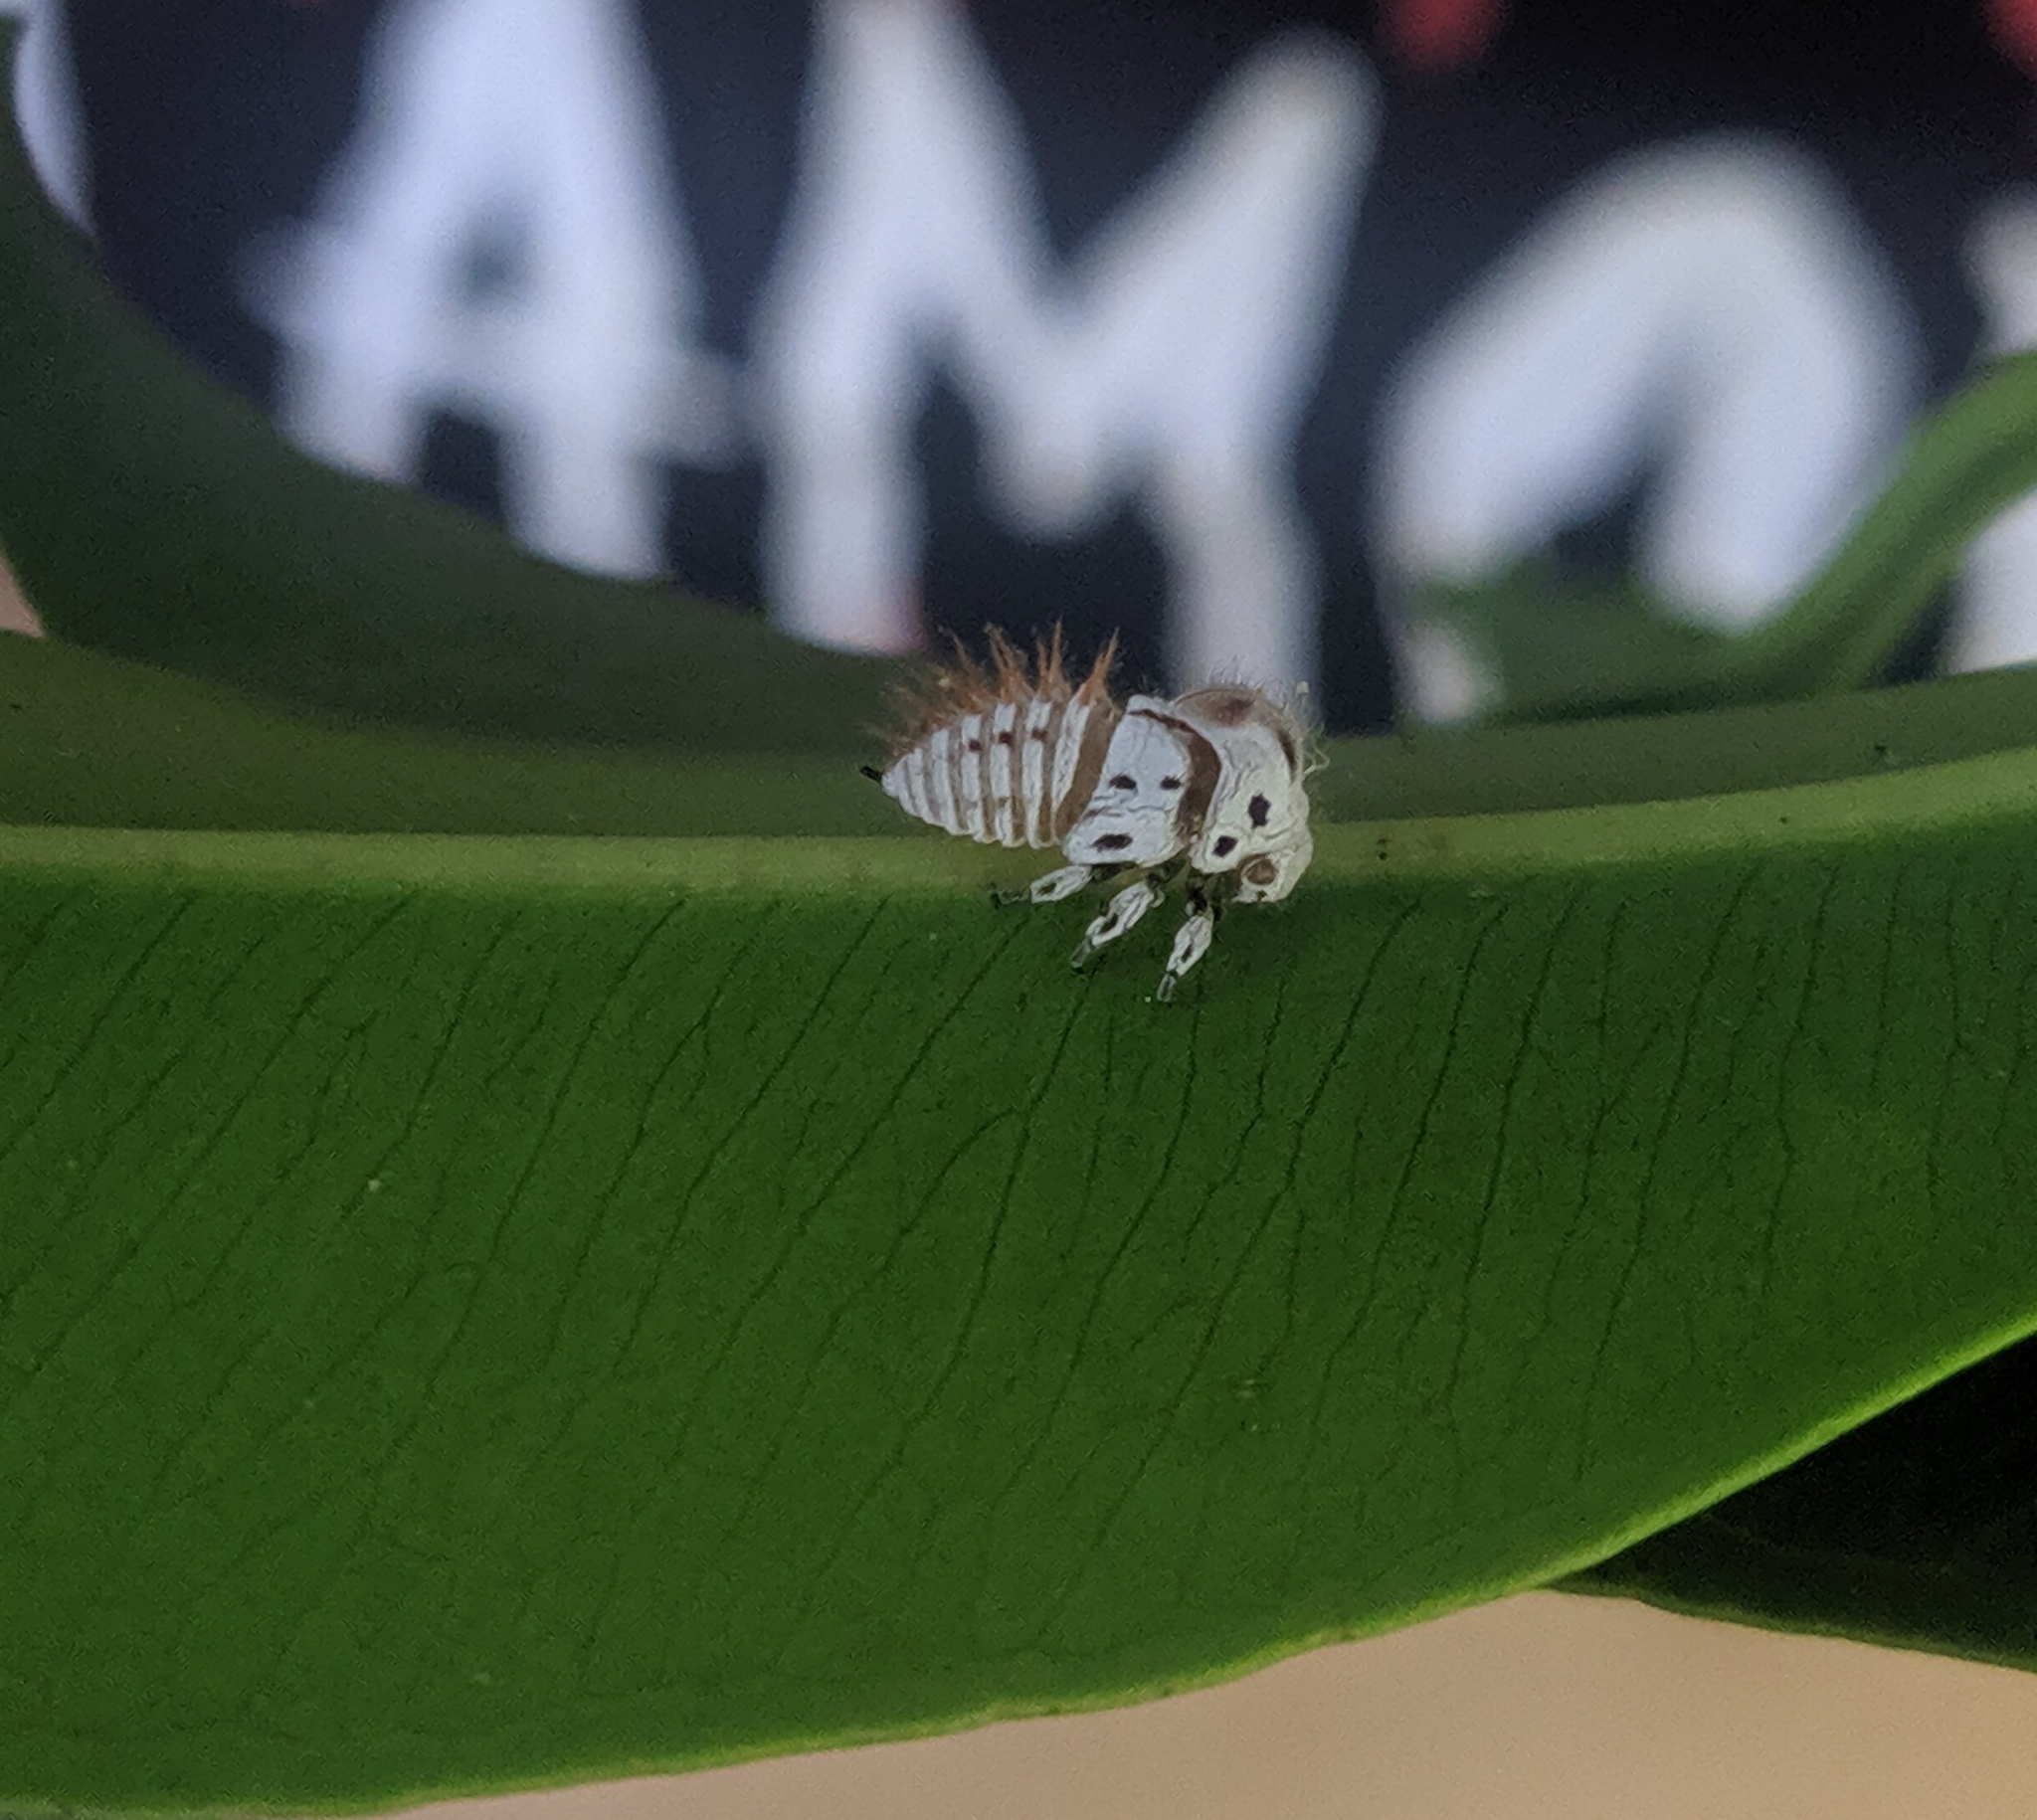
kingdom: Animalia
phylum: Arthropoda
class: Insecta
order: Hemiptera
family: Membracidae
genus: Membracis
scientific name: Membracis
